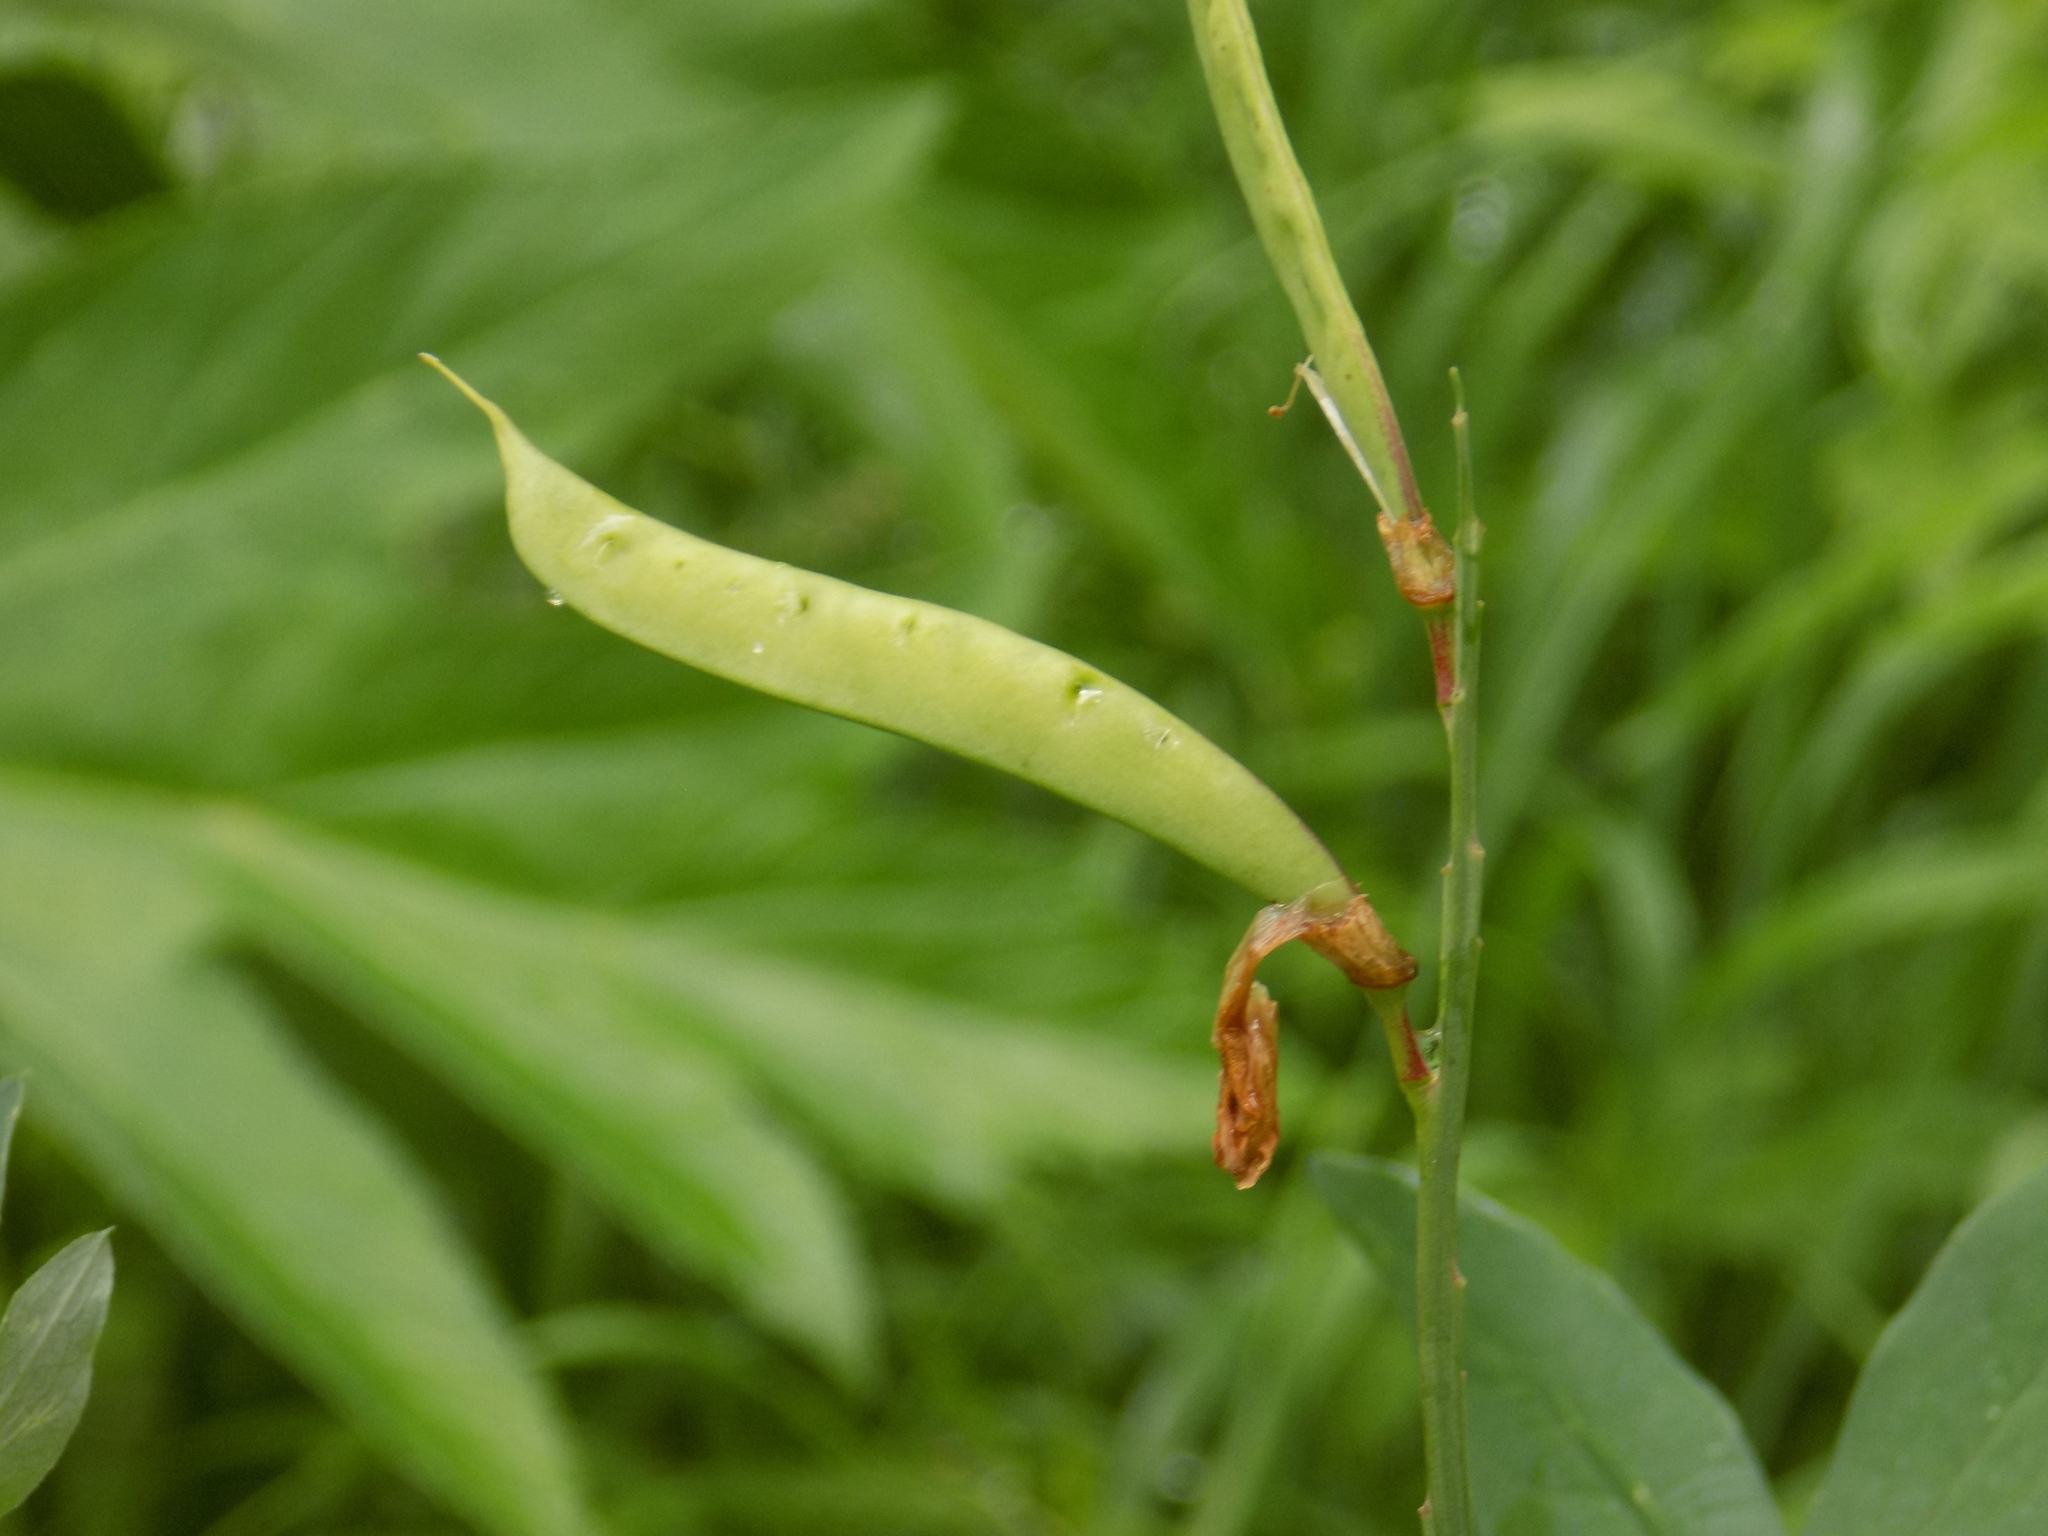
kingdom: Plantae
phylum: Tracheophyta
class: Magnoliopsida
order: Fabales
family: Fabaceae
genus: Lathyrus
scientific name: Lathyrus gmelinii
